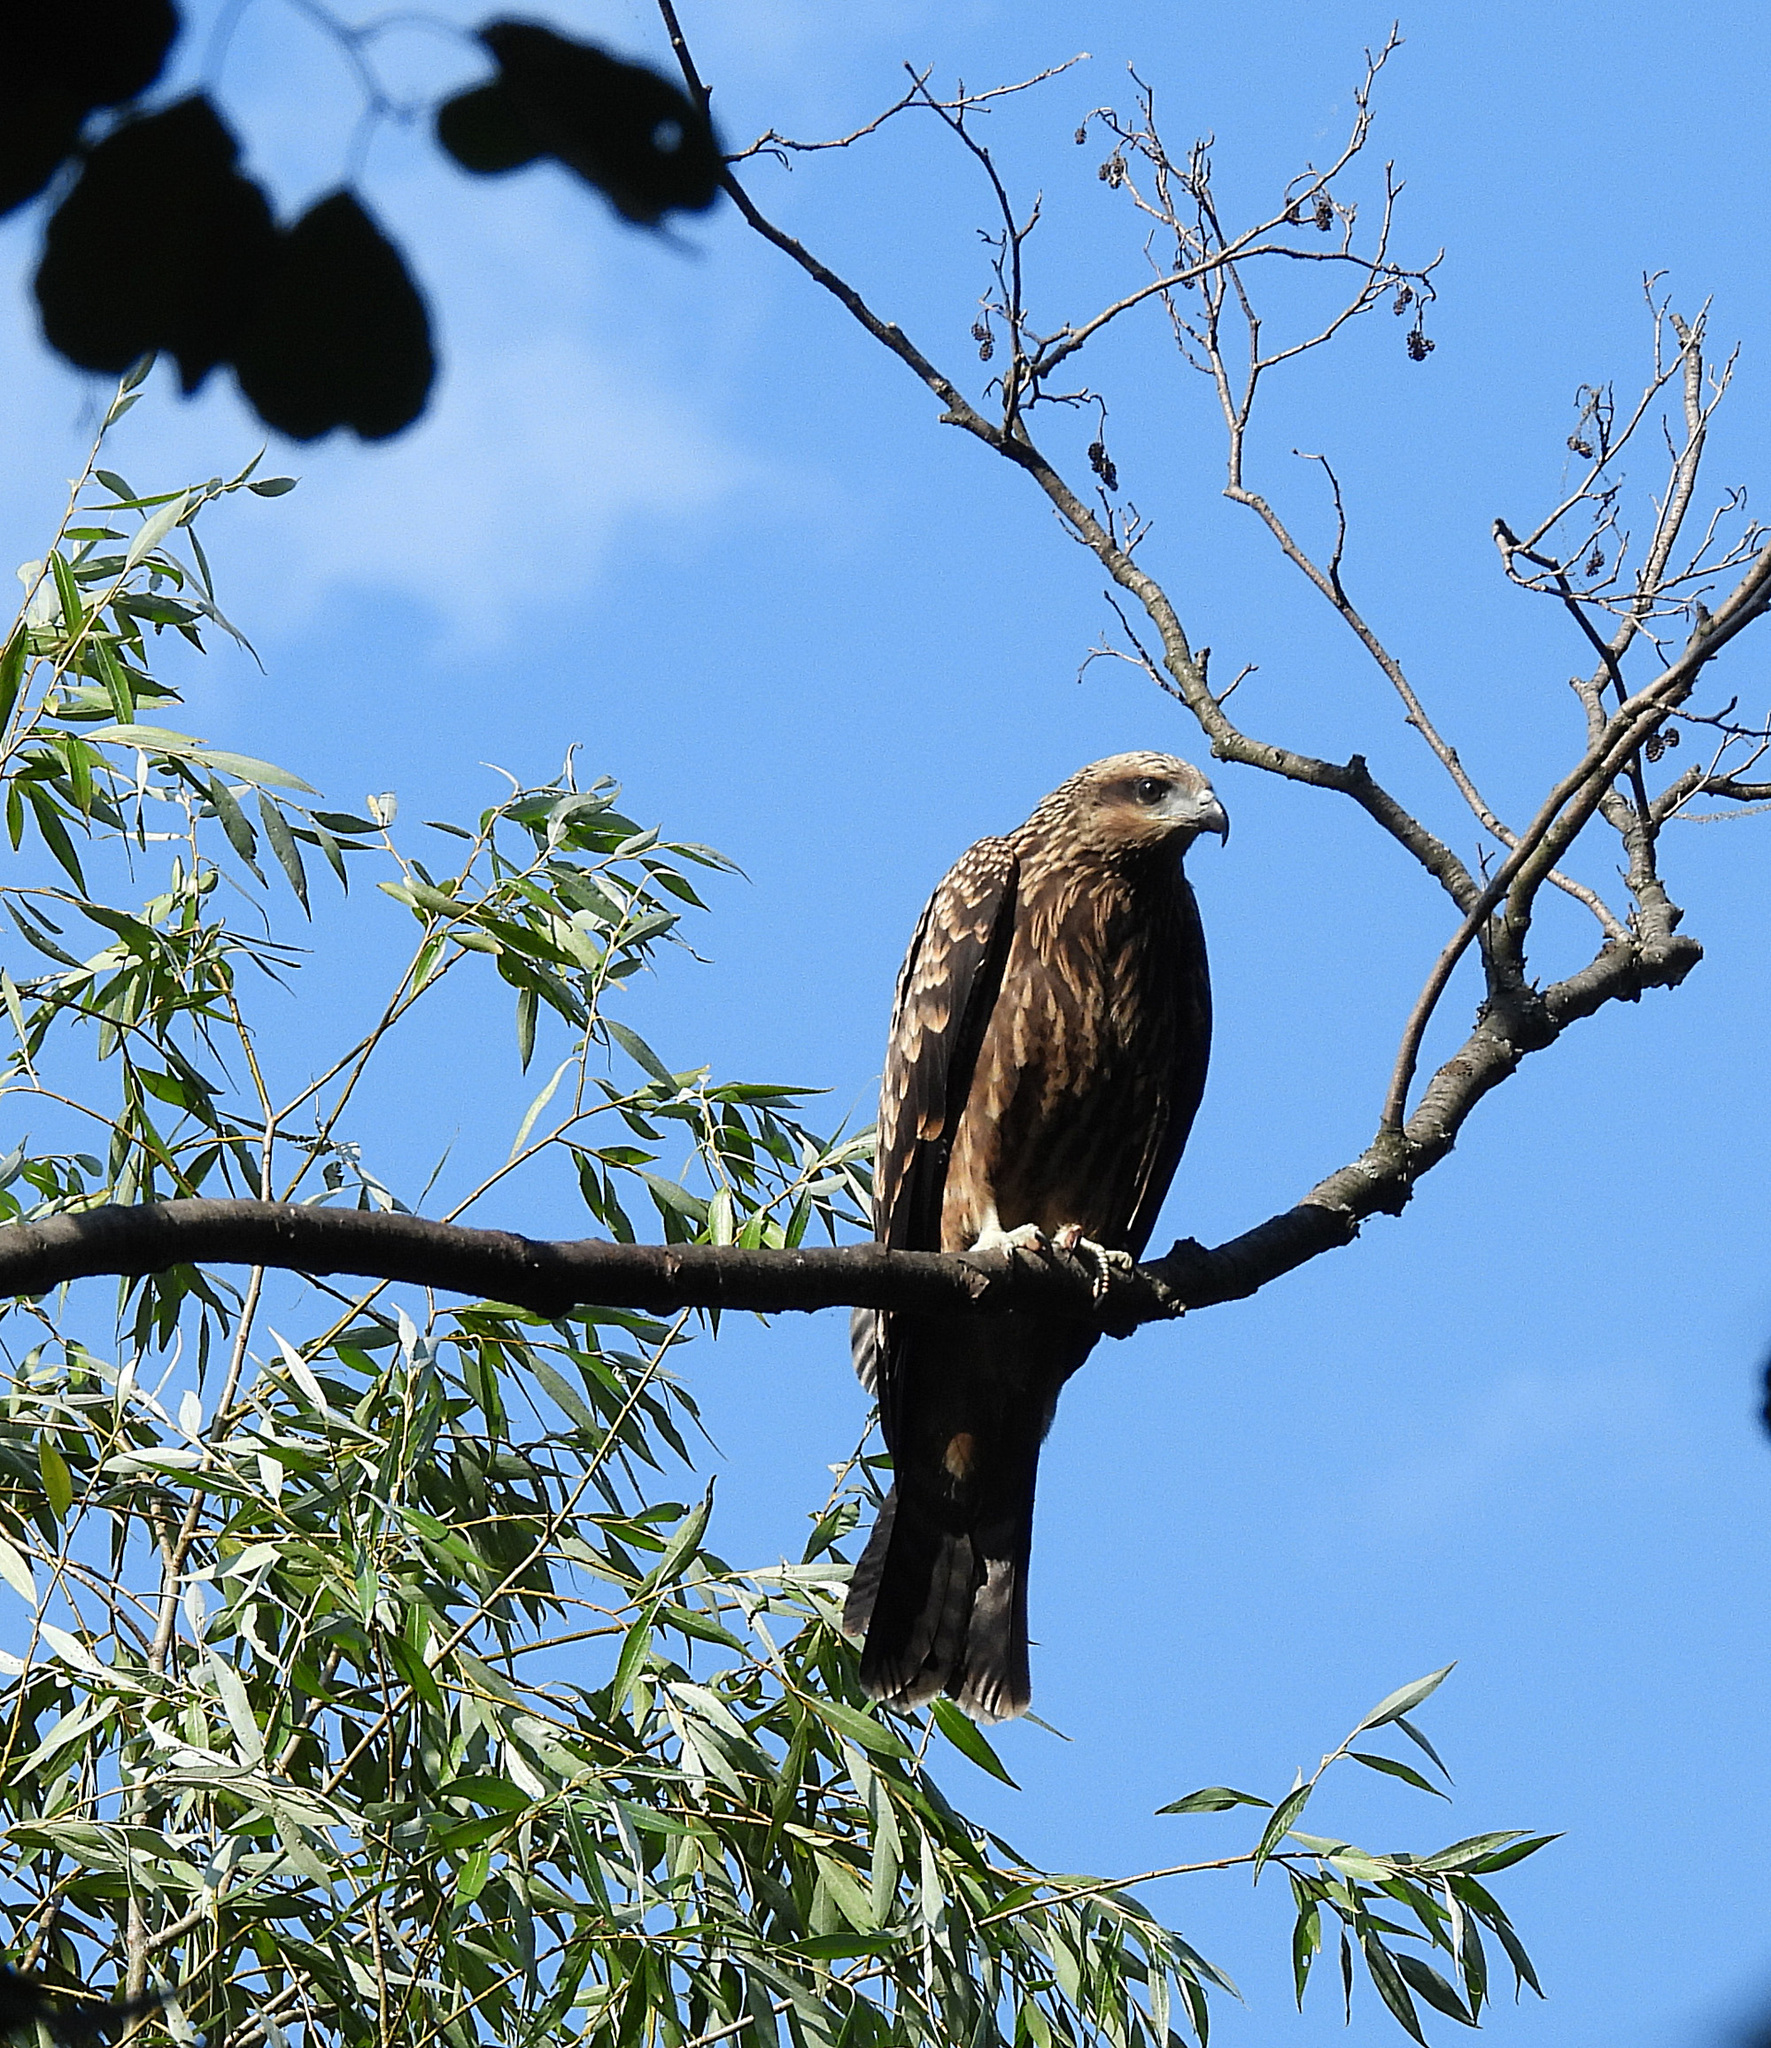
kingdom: Animalia
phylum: Chordata
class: Aves
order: Accipitriformes
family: Accipitridae
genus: Milvus
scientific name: Milvus migrans
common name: Black kite
